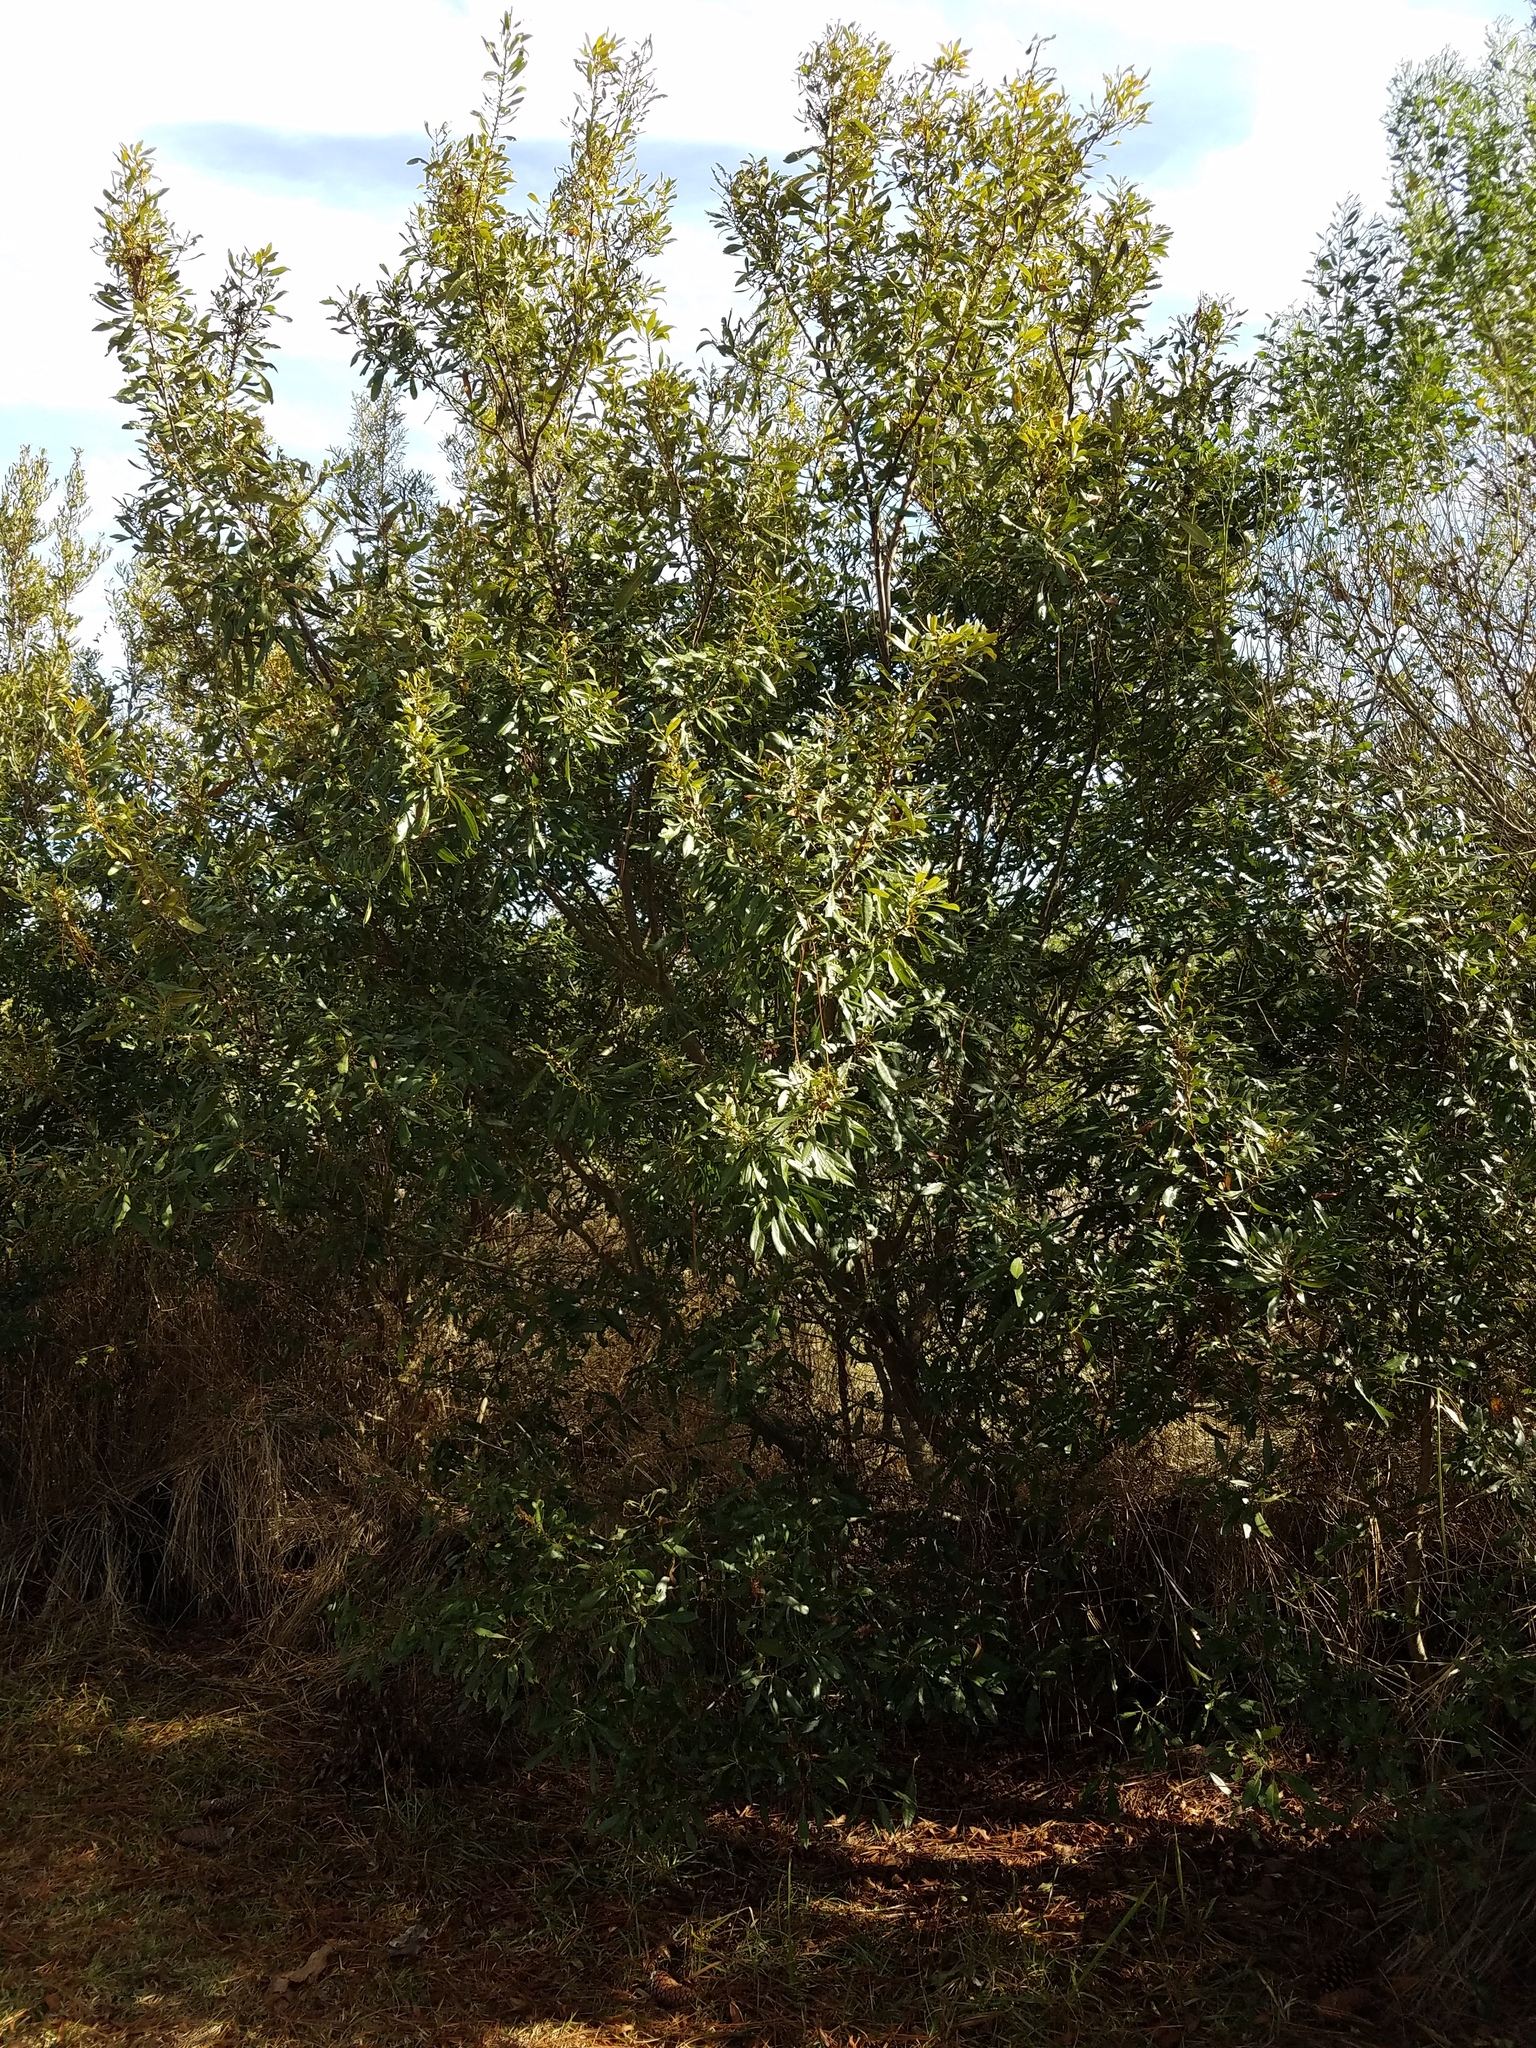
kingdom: Plantae
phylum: Tracheophyta
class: Magnoliopsida
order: Fagales
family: Myricaceae
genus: Morella
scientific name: Morella cerifera
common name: Wax myrtle
